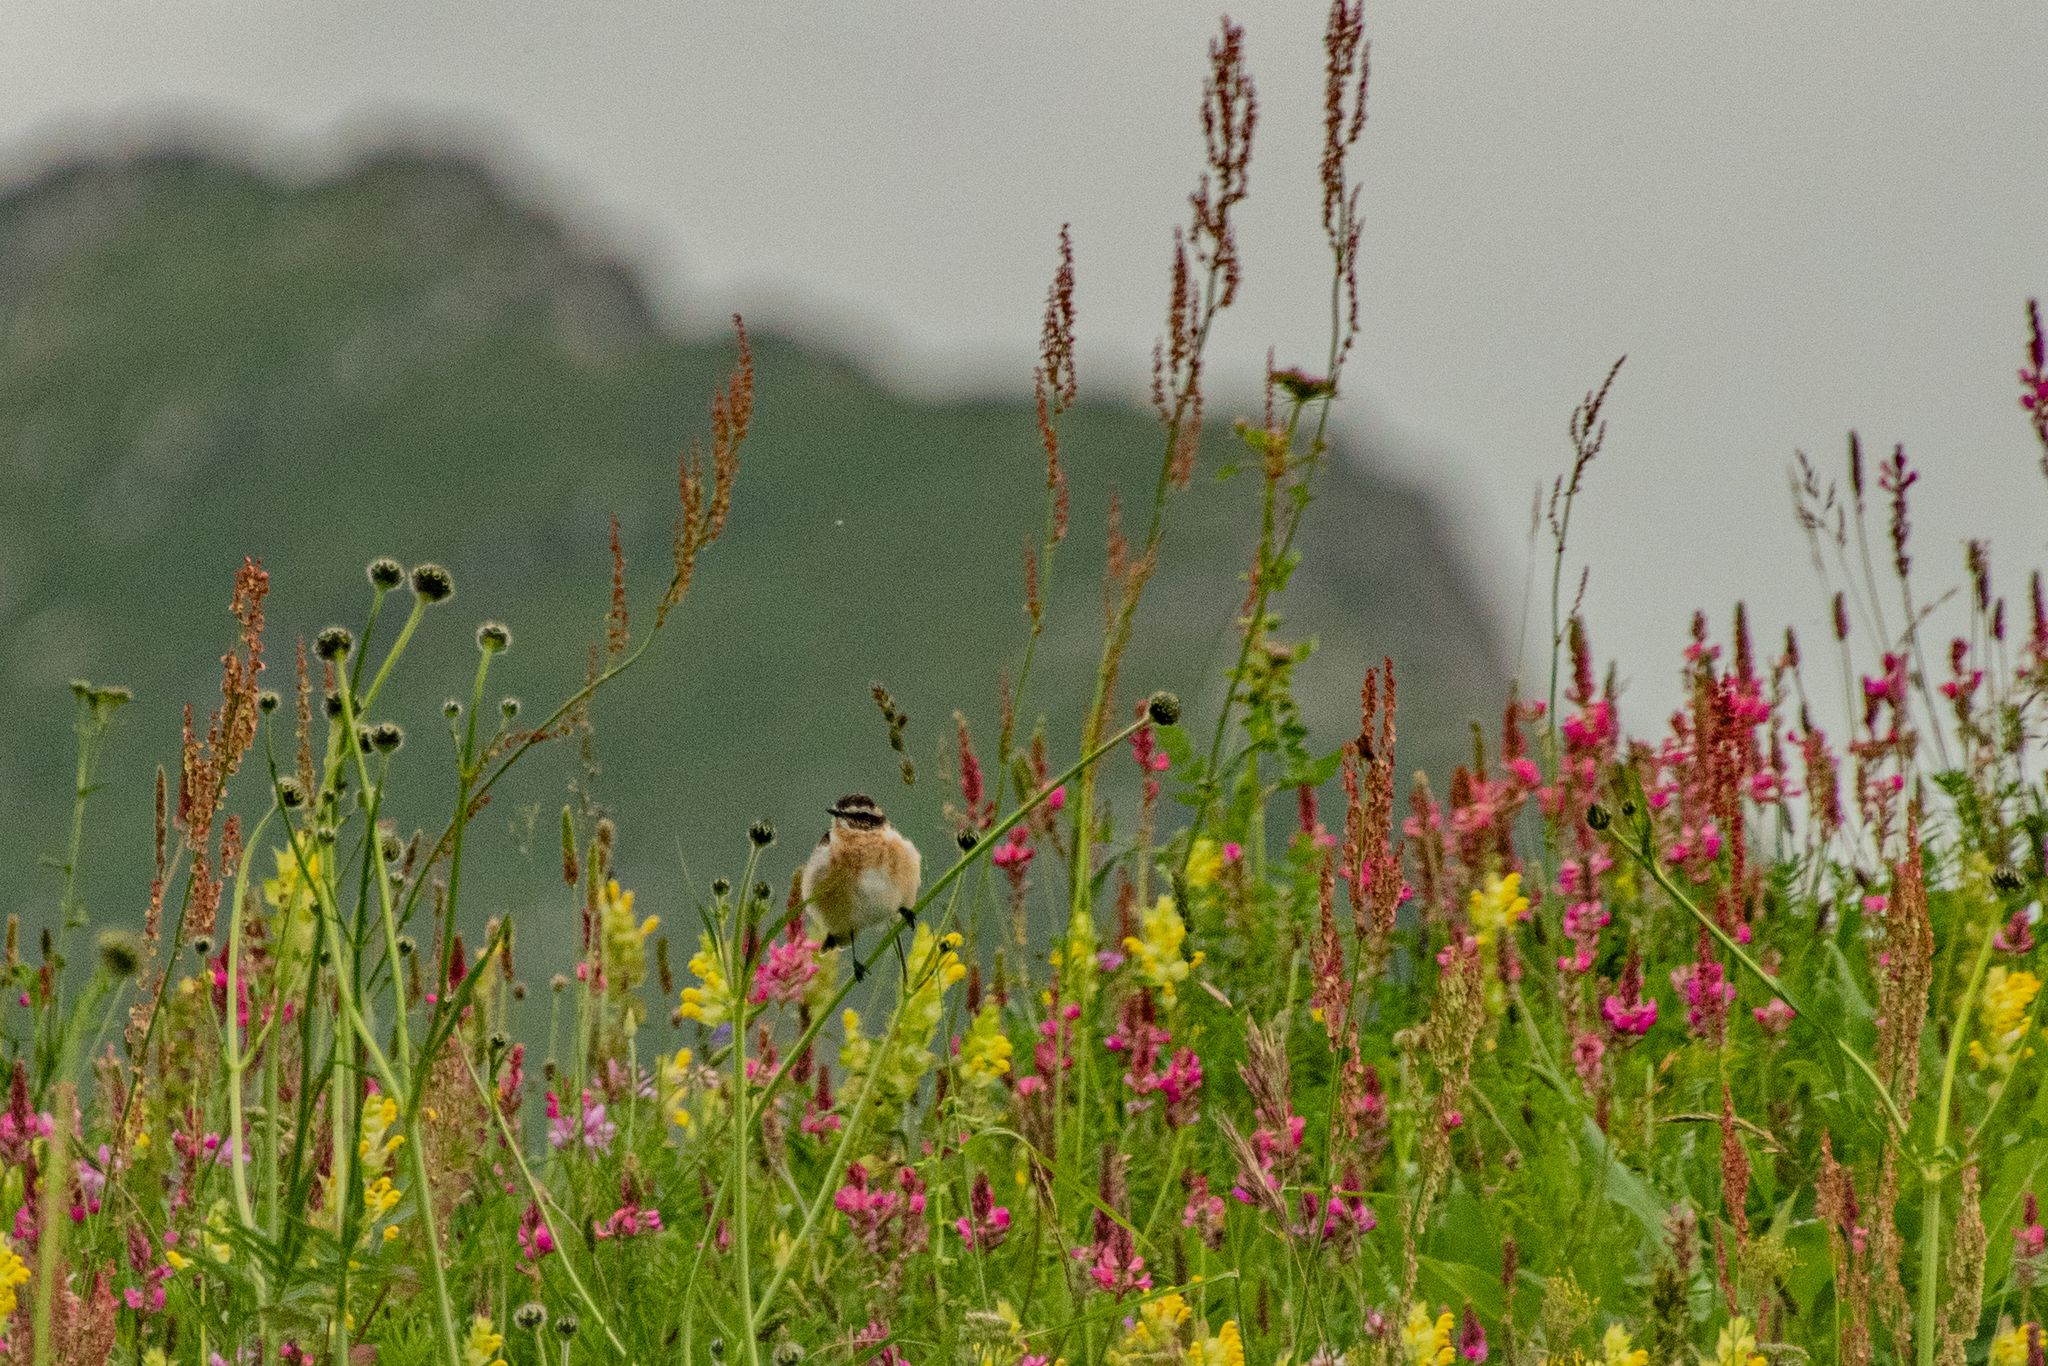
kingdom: Animalia
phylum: Chordata
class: Aves
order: Passeriformes
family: Muscicapidae
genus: Saxicola
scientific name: Saxicola rubetra
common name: Whinchat
